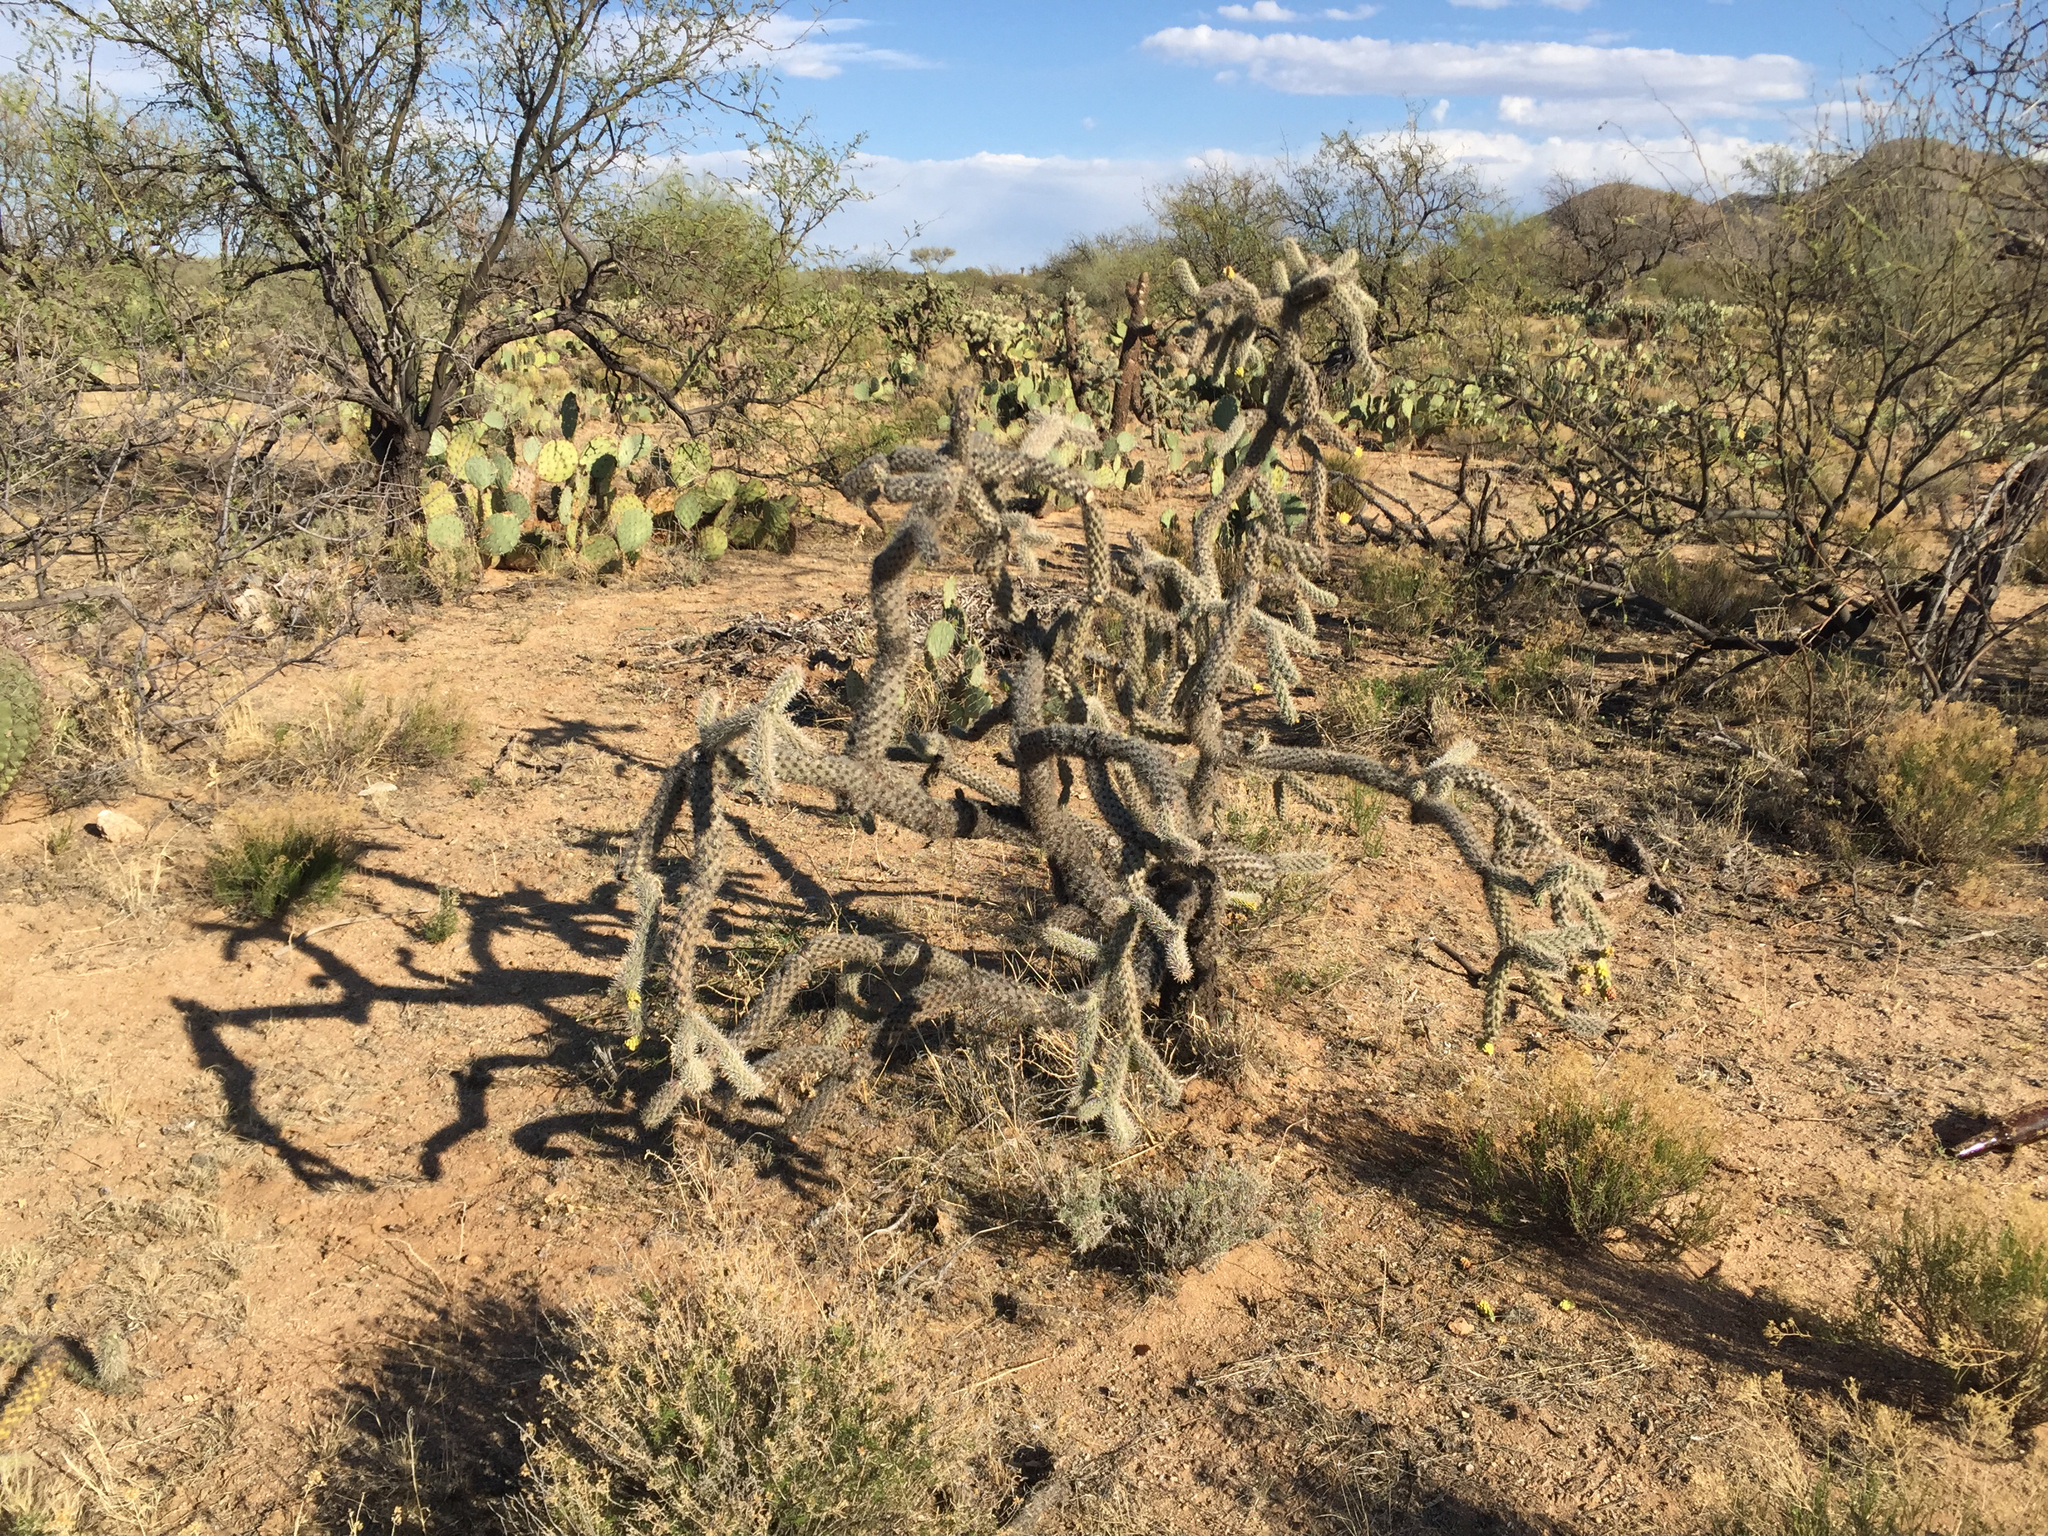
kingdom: Plantae
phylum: Tracheophyta
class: Magnoliopsida
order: Caryophyllales
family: Cactaceae
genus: Cylindropuntia
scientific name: Cylindropuntia imbricata
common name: Candelabrum cactus
